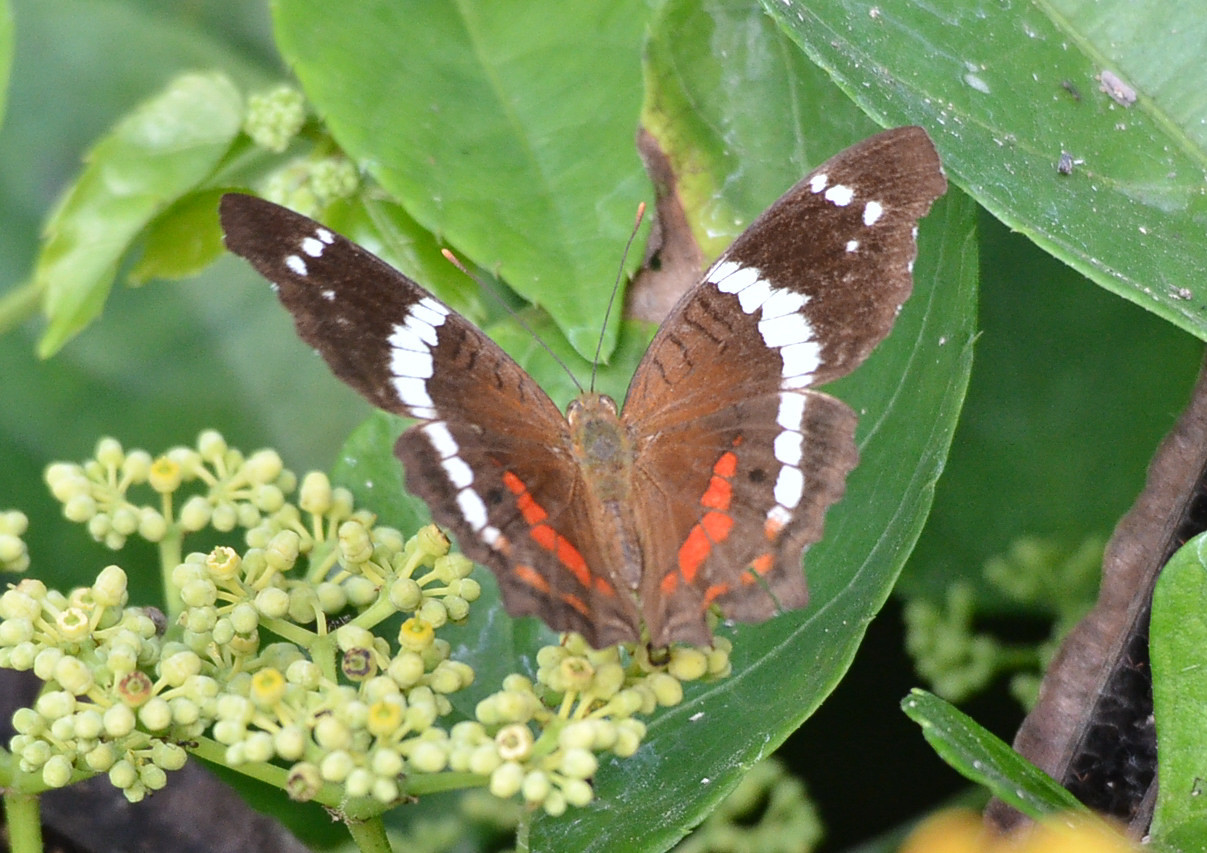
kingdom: Animalia
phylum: Arthropoda
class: Insecta
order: Lepidoptera
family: Nymphalidae
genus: Anartia
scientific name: Anartia fatima
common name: Banded peacock
